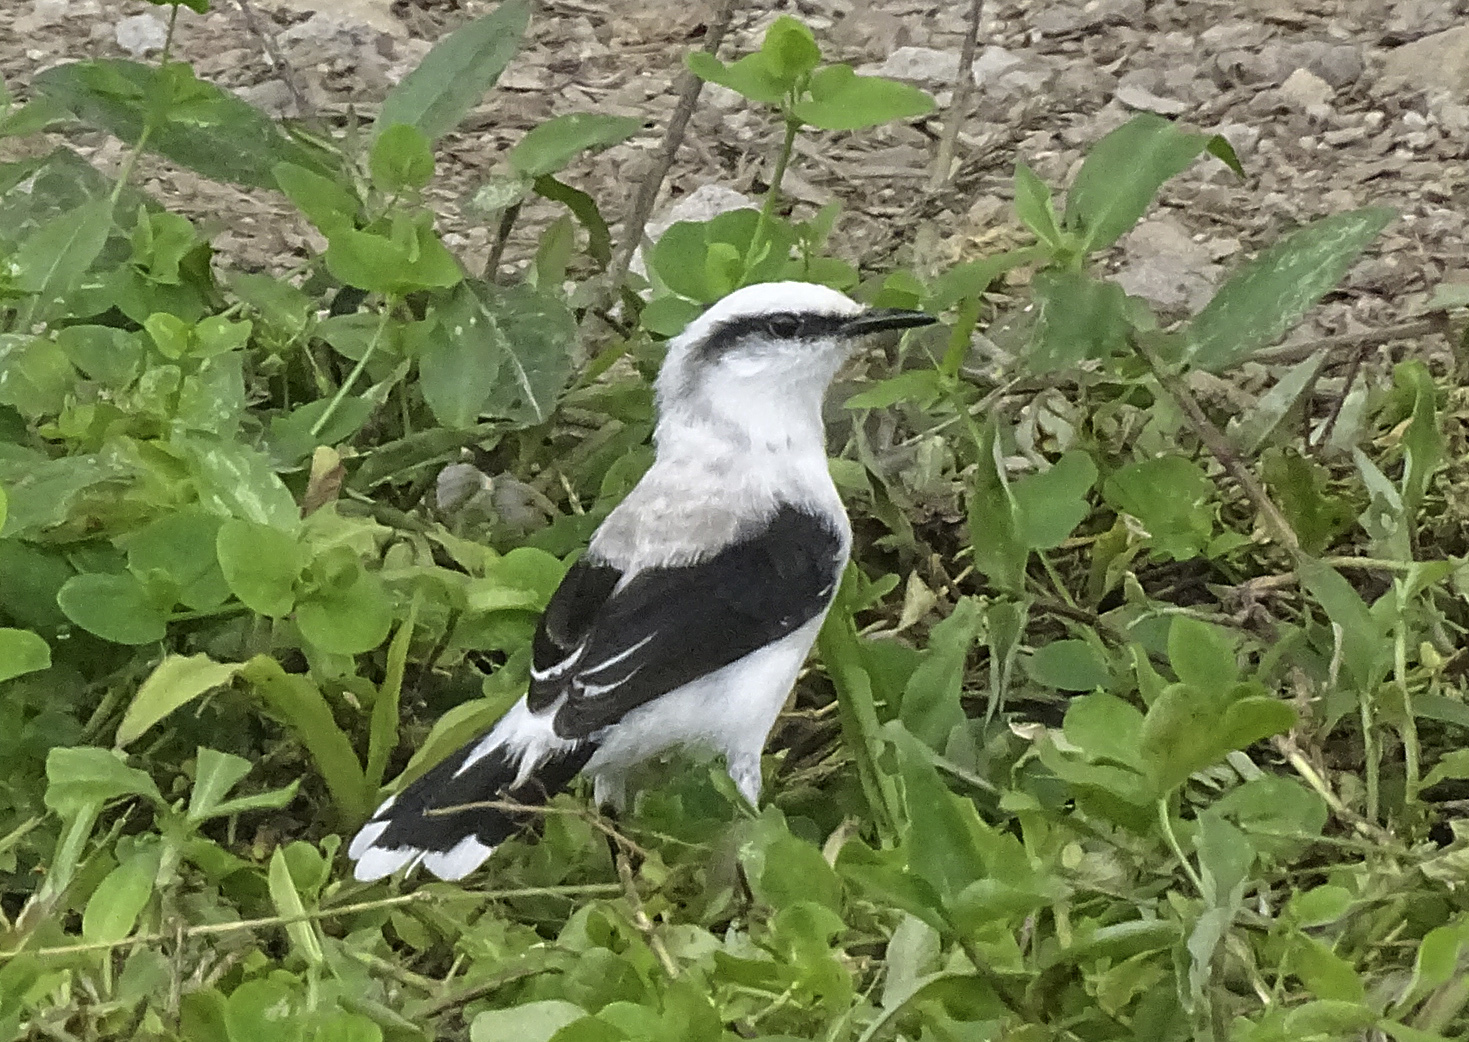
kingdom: Animalia
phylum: Chordata
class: Aves
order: Passeriformes
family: Tyrannidae
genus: Fluvicola
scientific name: Fluvicola nengeta
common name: Masked water tyrant
